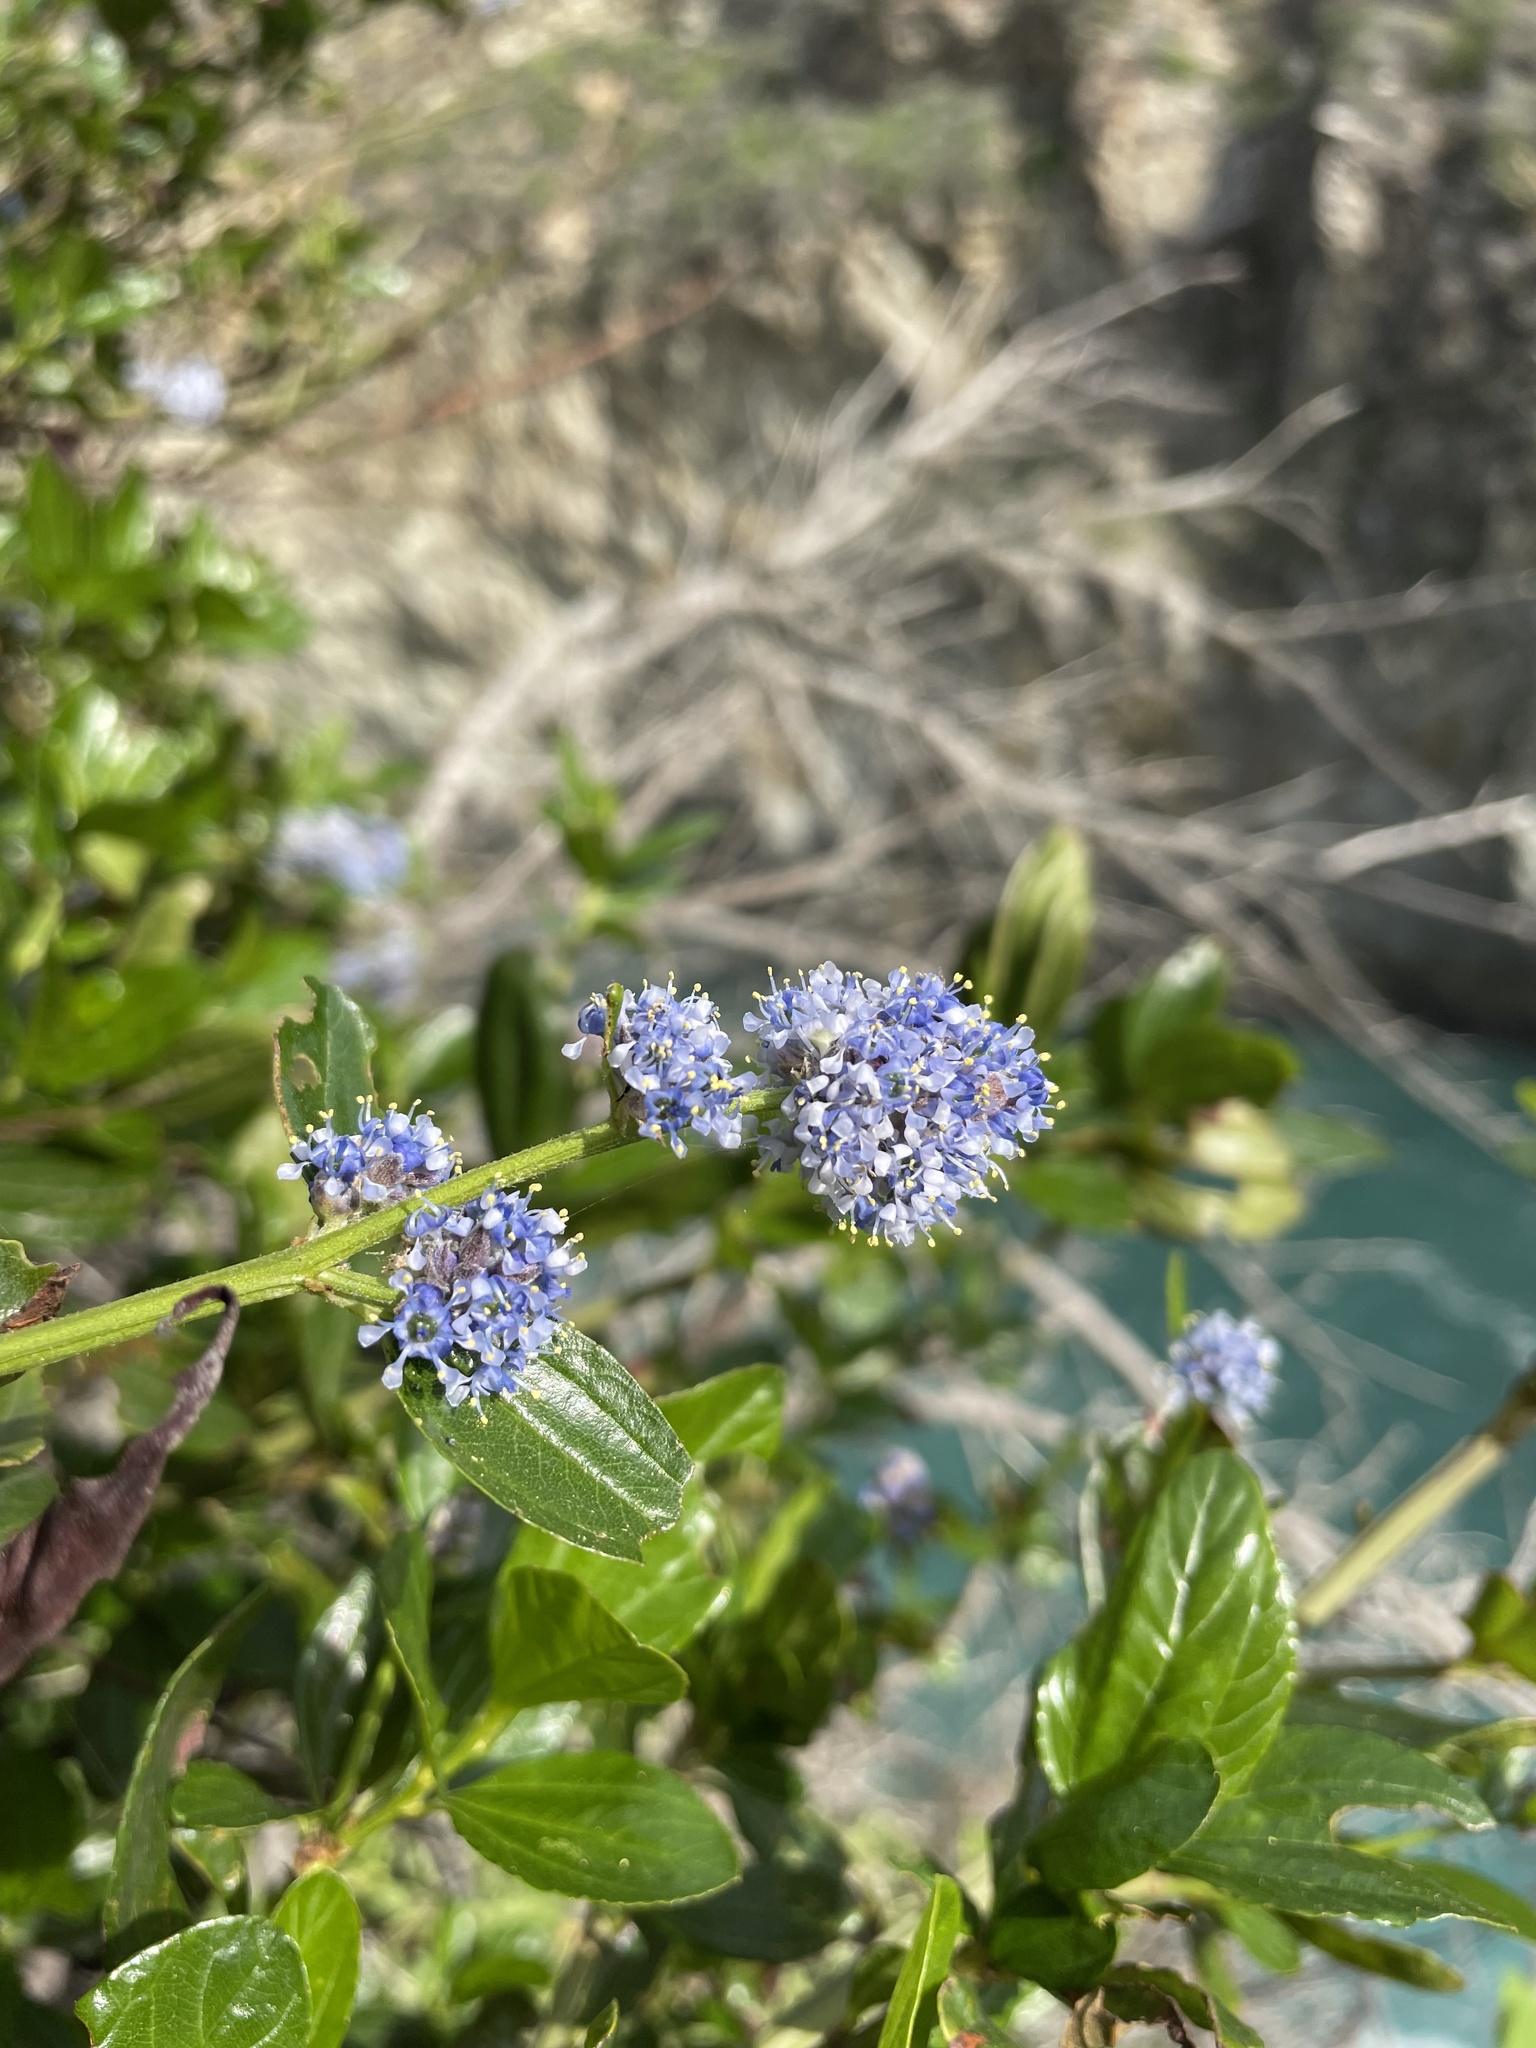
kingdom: Plantae
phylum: Tracheophyta
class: Magnoliopsida
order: Rosales
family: Rhamnaceae
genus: Ceanothus
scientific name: Ceanothus thyrsiflorus
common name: California-lilac
